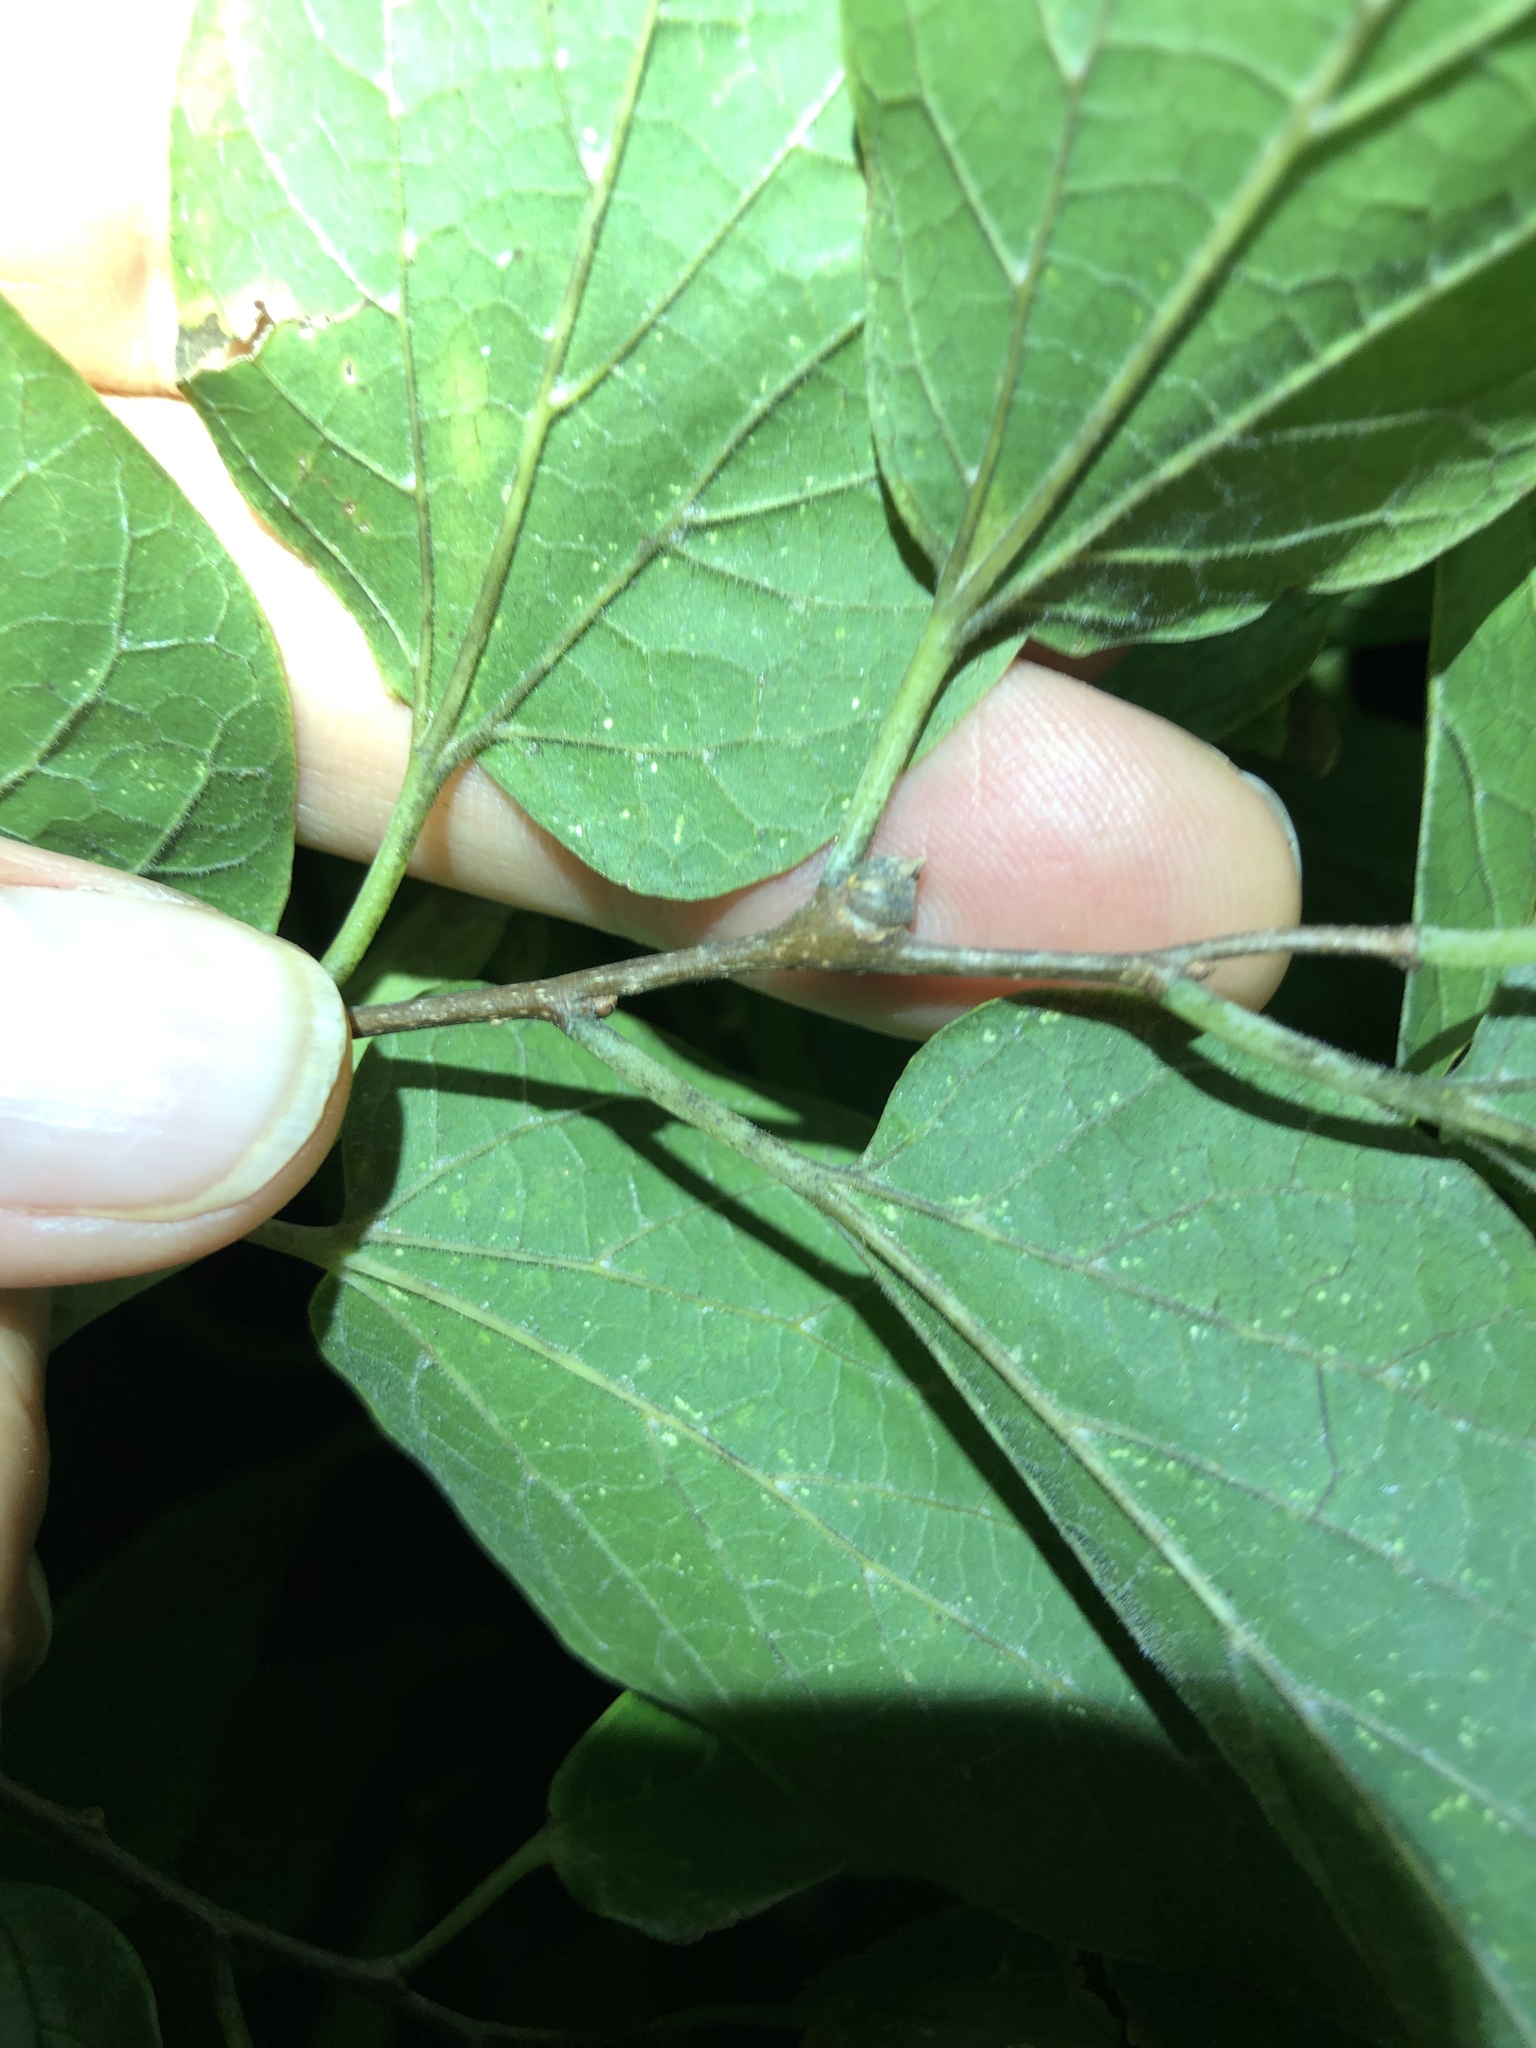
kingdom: Animalia
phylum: Arthropoda
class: Insecta
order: Hemiptera
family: Aphalaridae
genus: Pachypsylla
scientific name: Pachypsylla celtidisgemma
